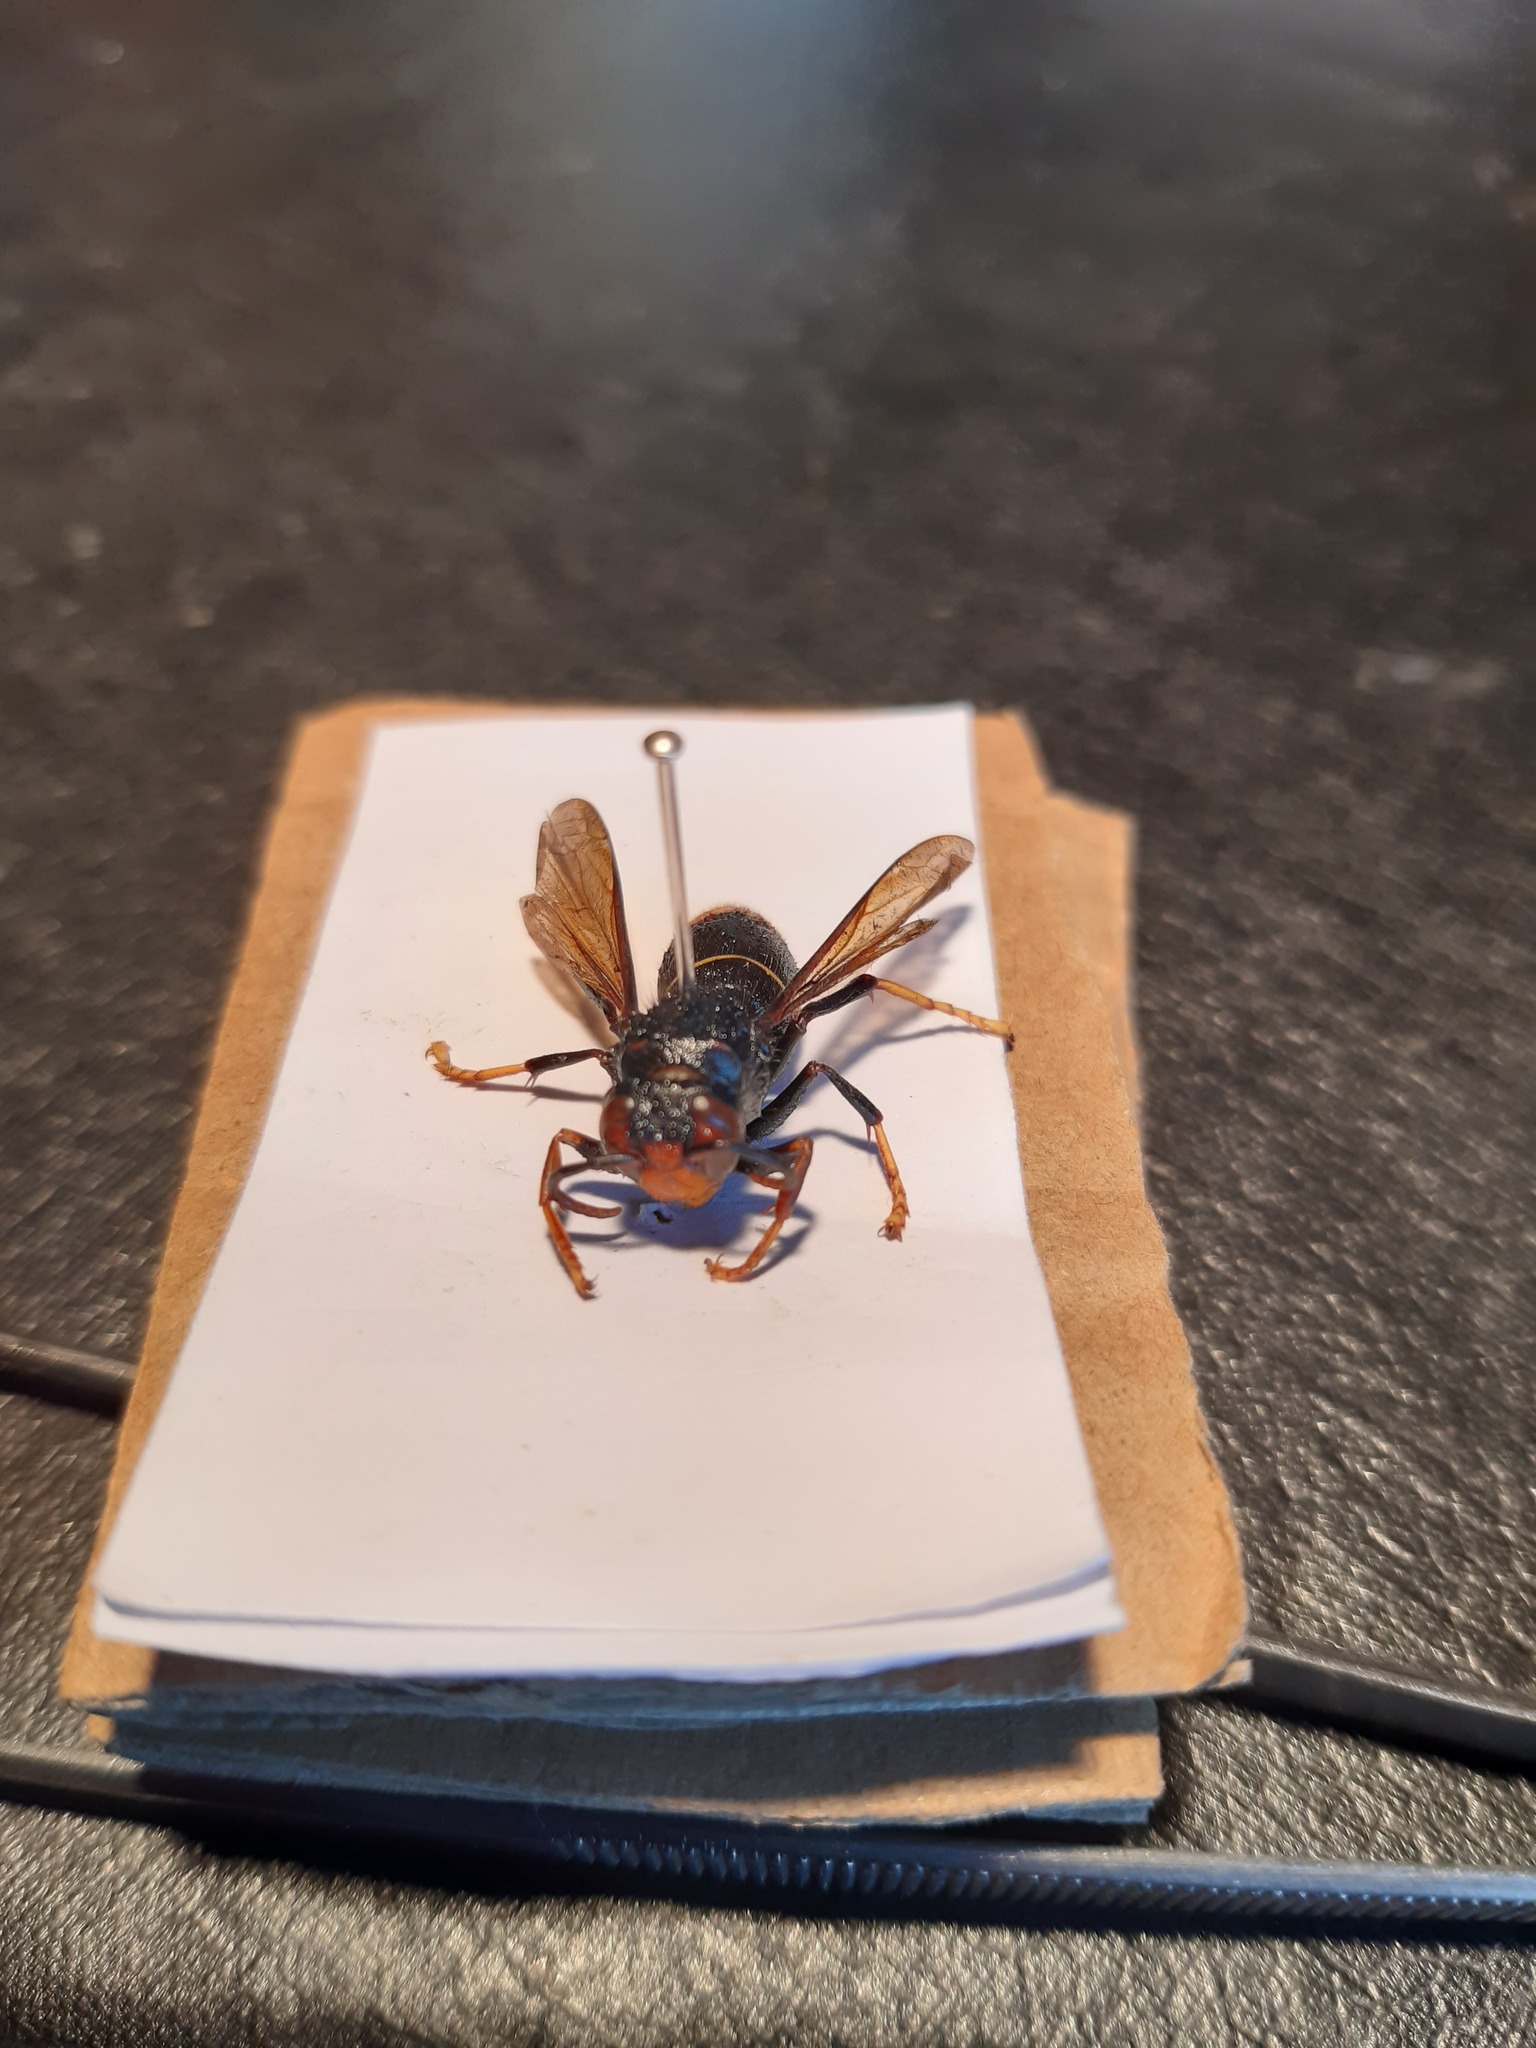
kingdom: Animalia
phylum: Arthropoda
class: Insecta
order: Hymenoptera
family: Vespidae
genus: Vespa
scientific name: Vespa velutina
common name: Asian hornet
